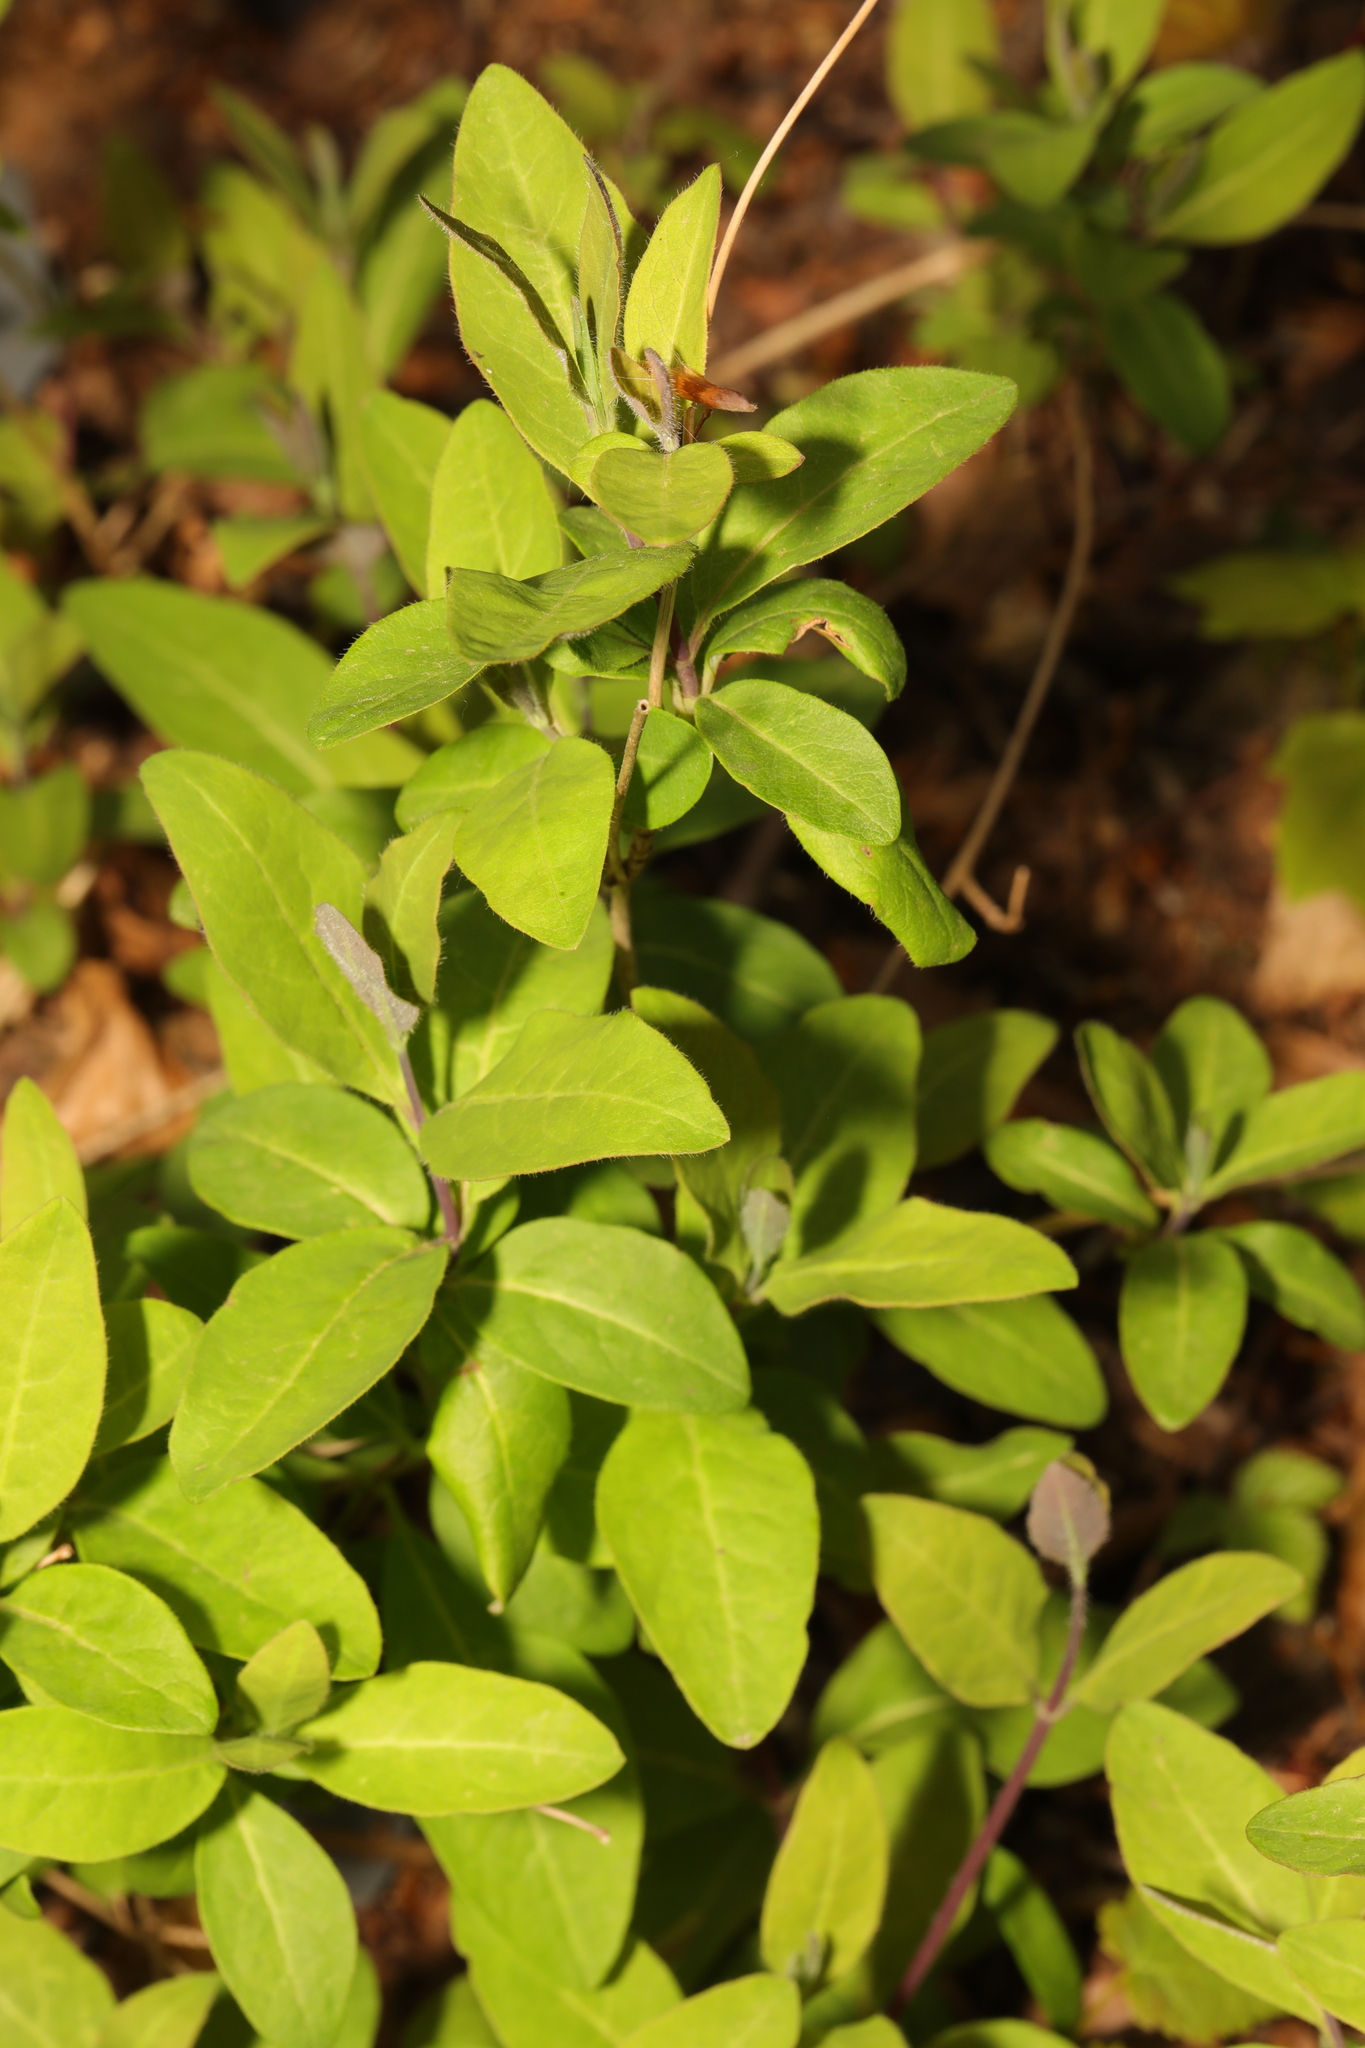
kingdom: Plantae
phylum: Tracheophyta
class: Magnoliopsida
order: Dipsacales
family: Caprifoliaceae
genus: Lonicera
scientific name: Lonicera periclymenum
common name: European honeysuckle
